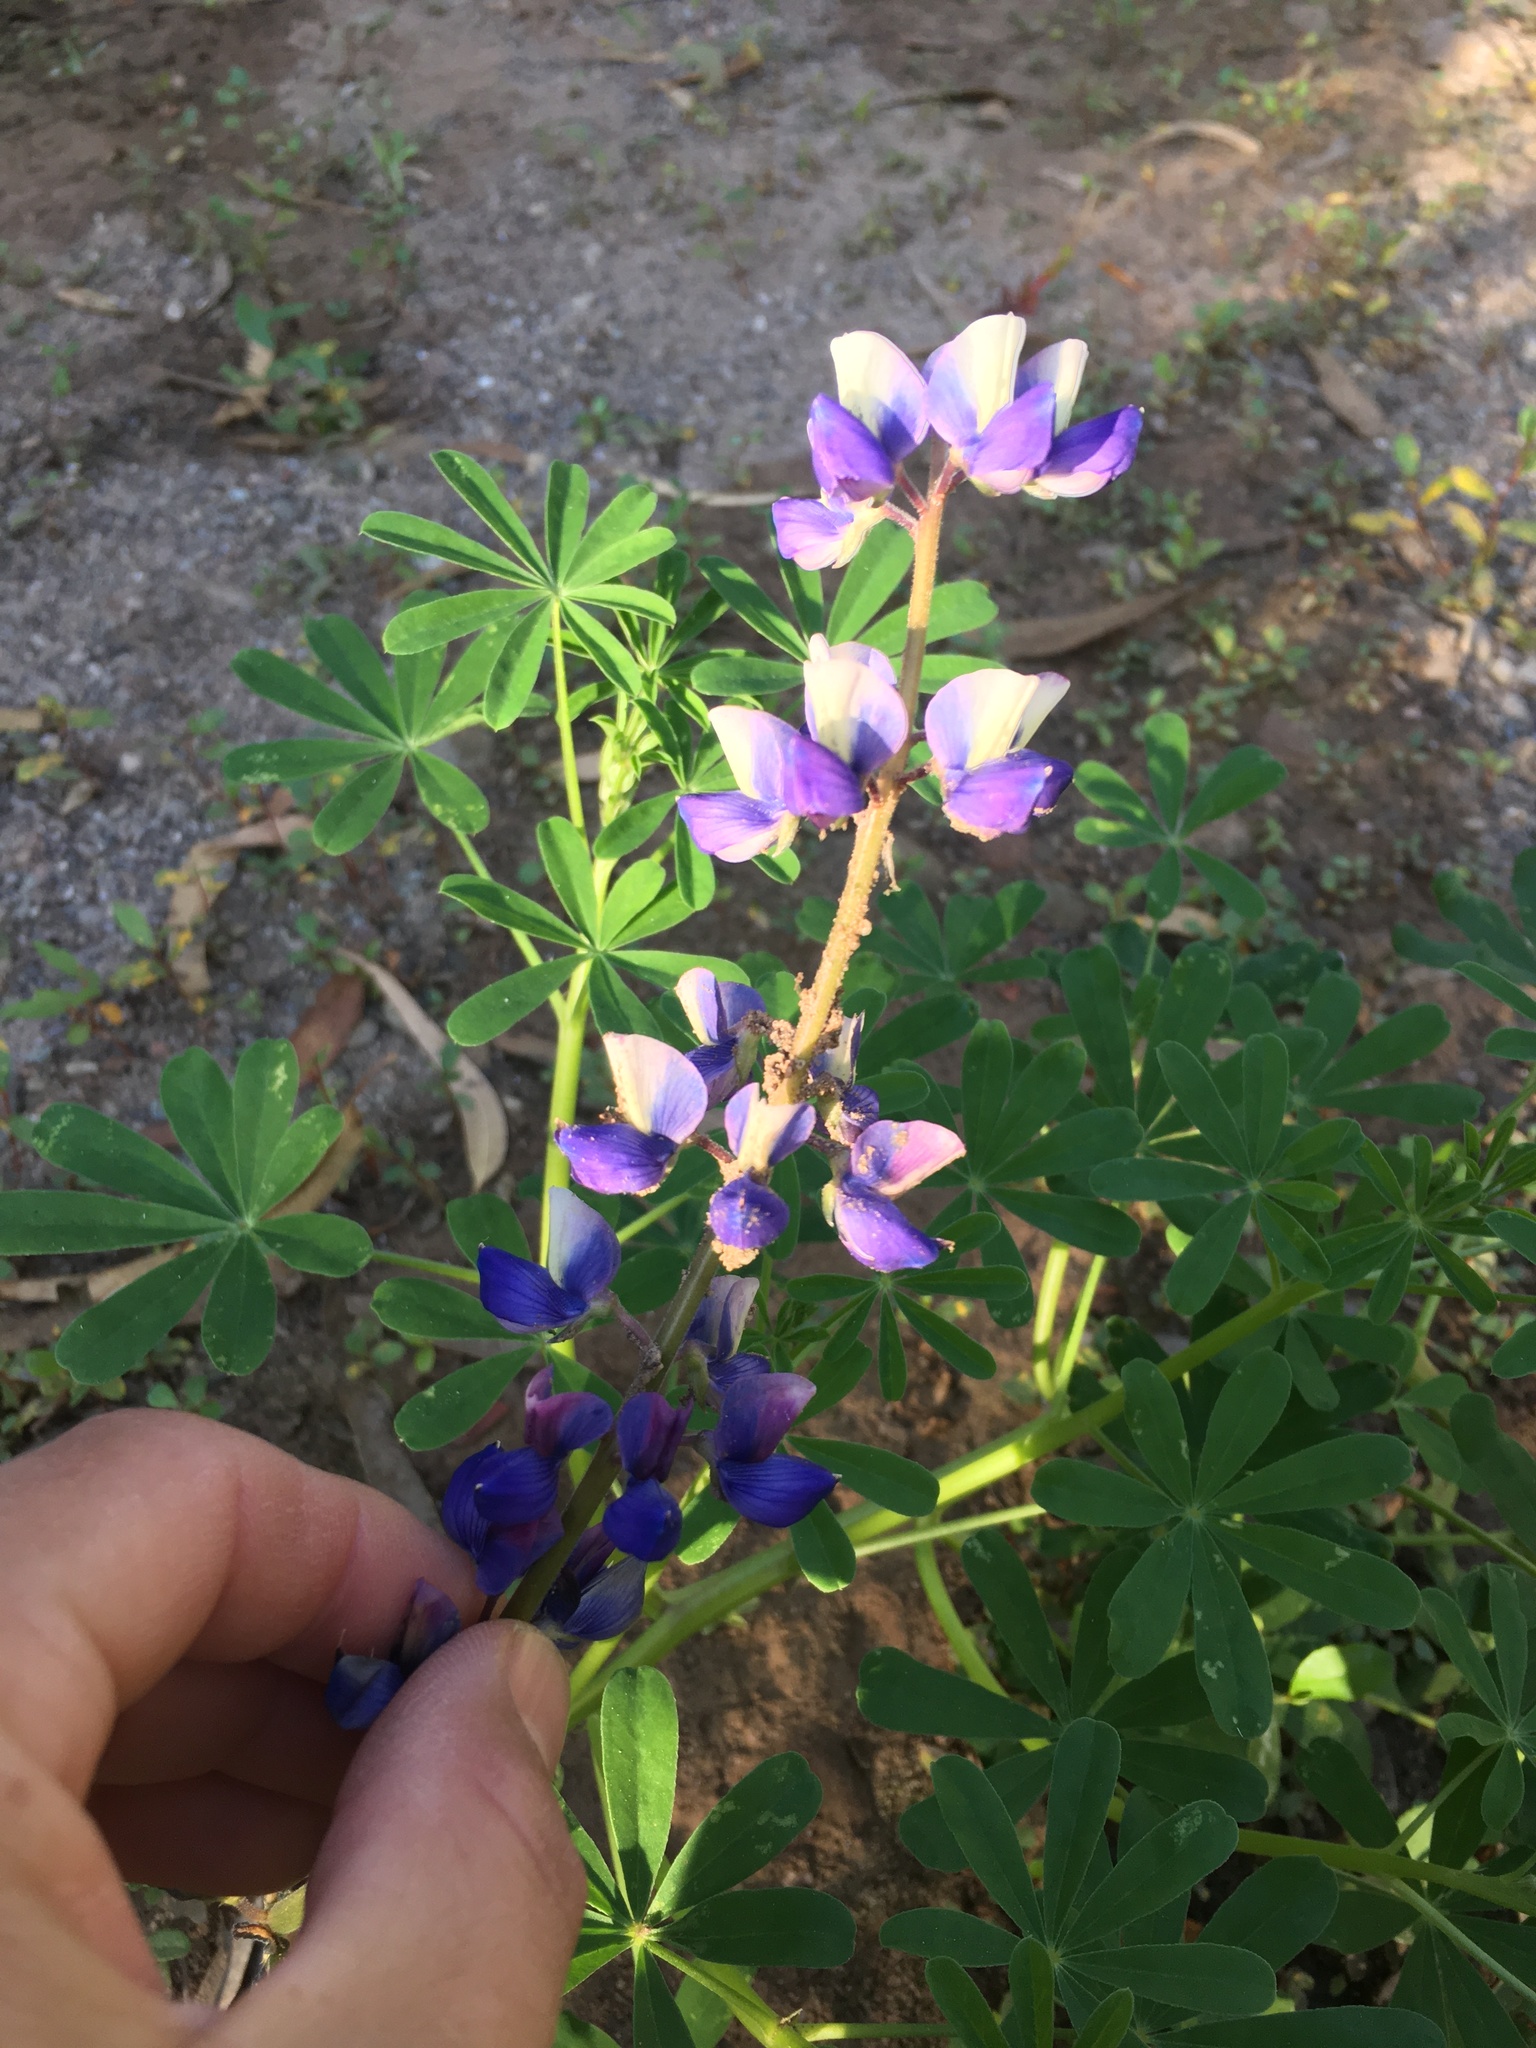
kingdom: Plantae
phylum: Tracheophyta
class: Magnoliopsida
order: Fabales
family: Fabaceae
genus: Lupinus
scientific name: Lupinus succulentus
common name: Arroyo lupine
